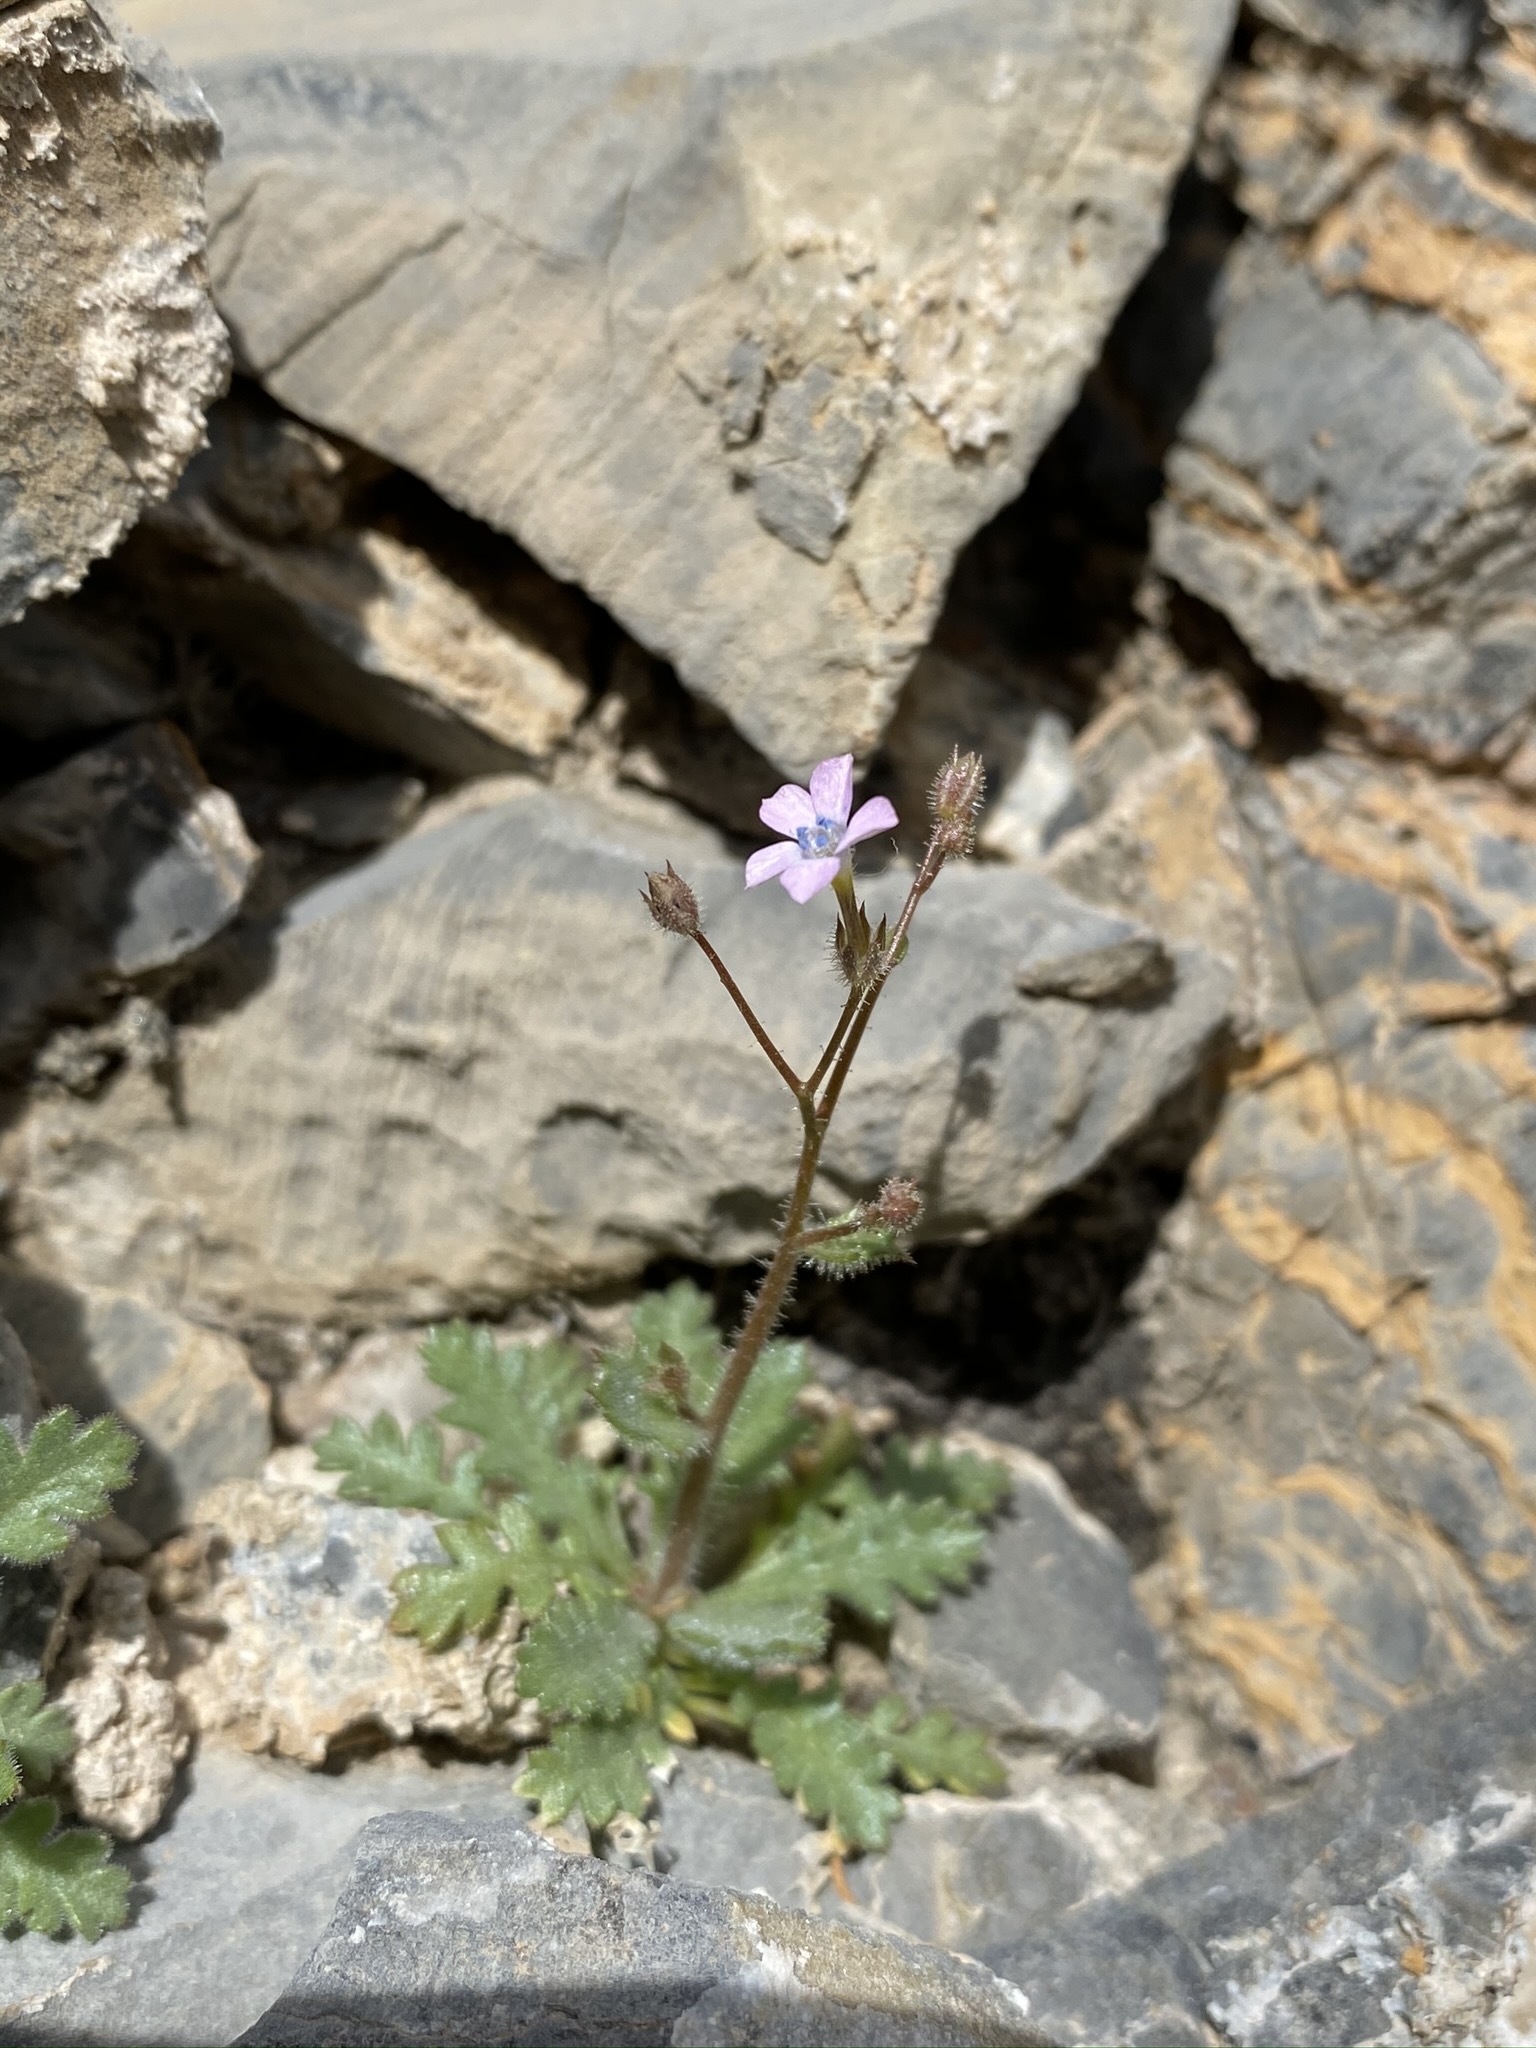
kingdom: Plantae
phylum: Tracheophyta
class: Magnoliopsida
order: Ericales
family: Polemoniaceae
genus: Gilia
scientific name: Gilia scopulorum
